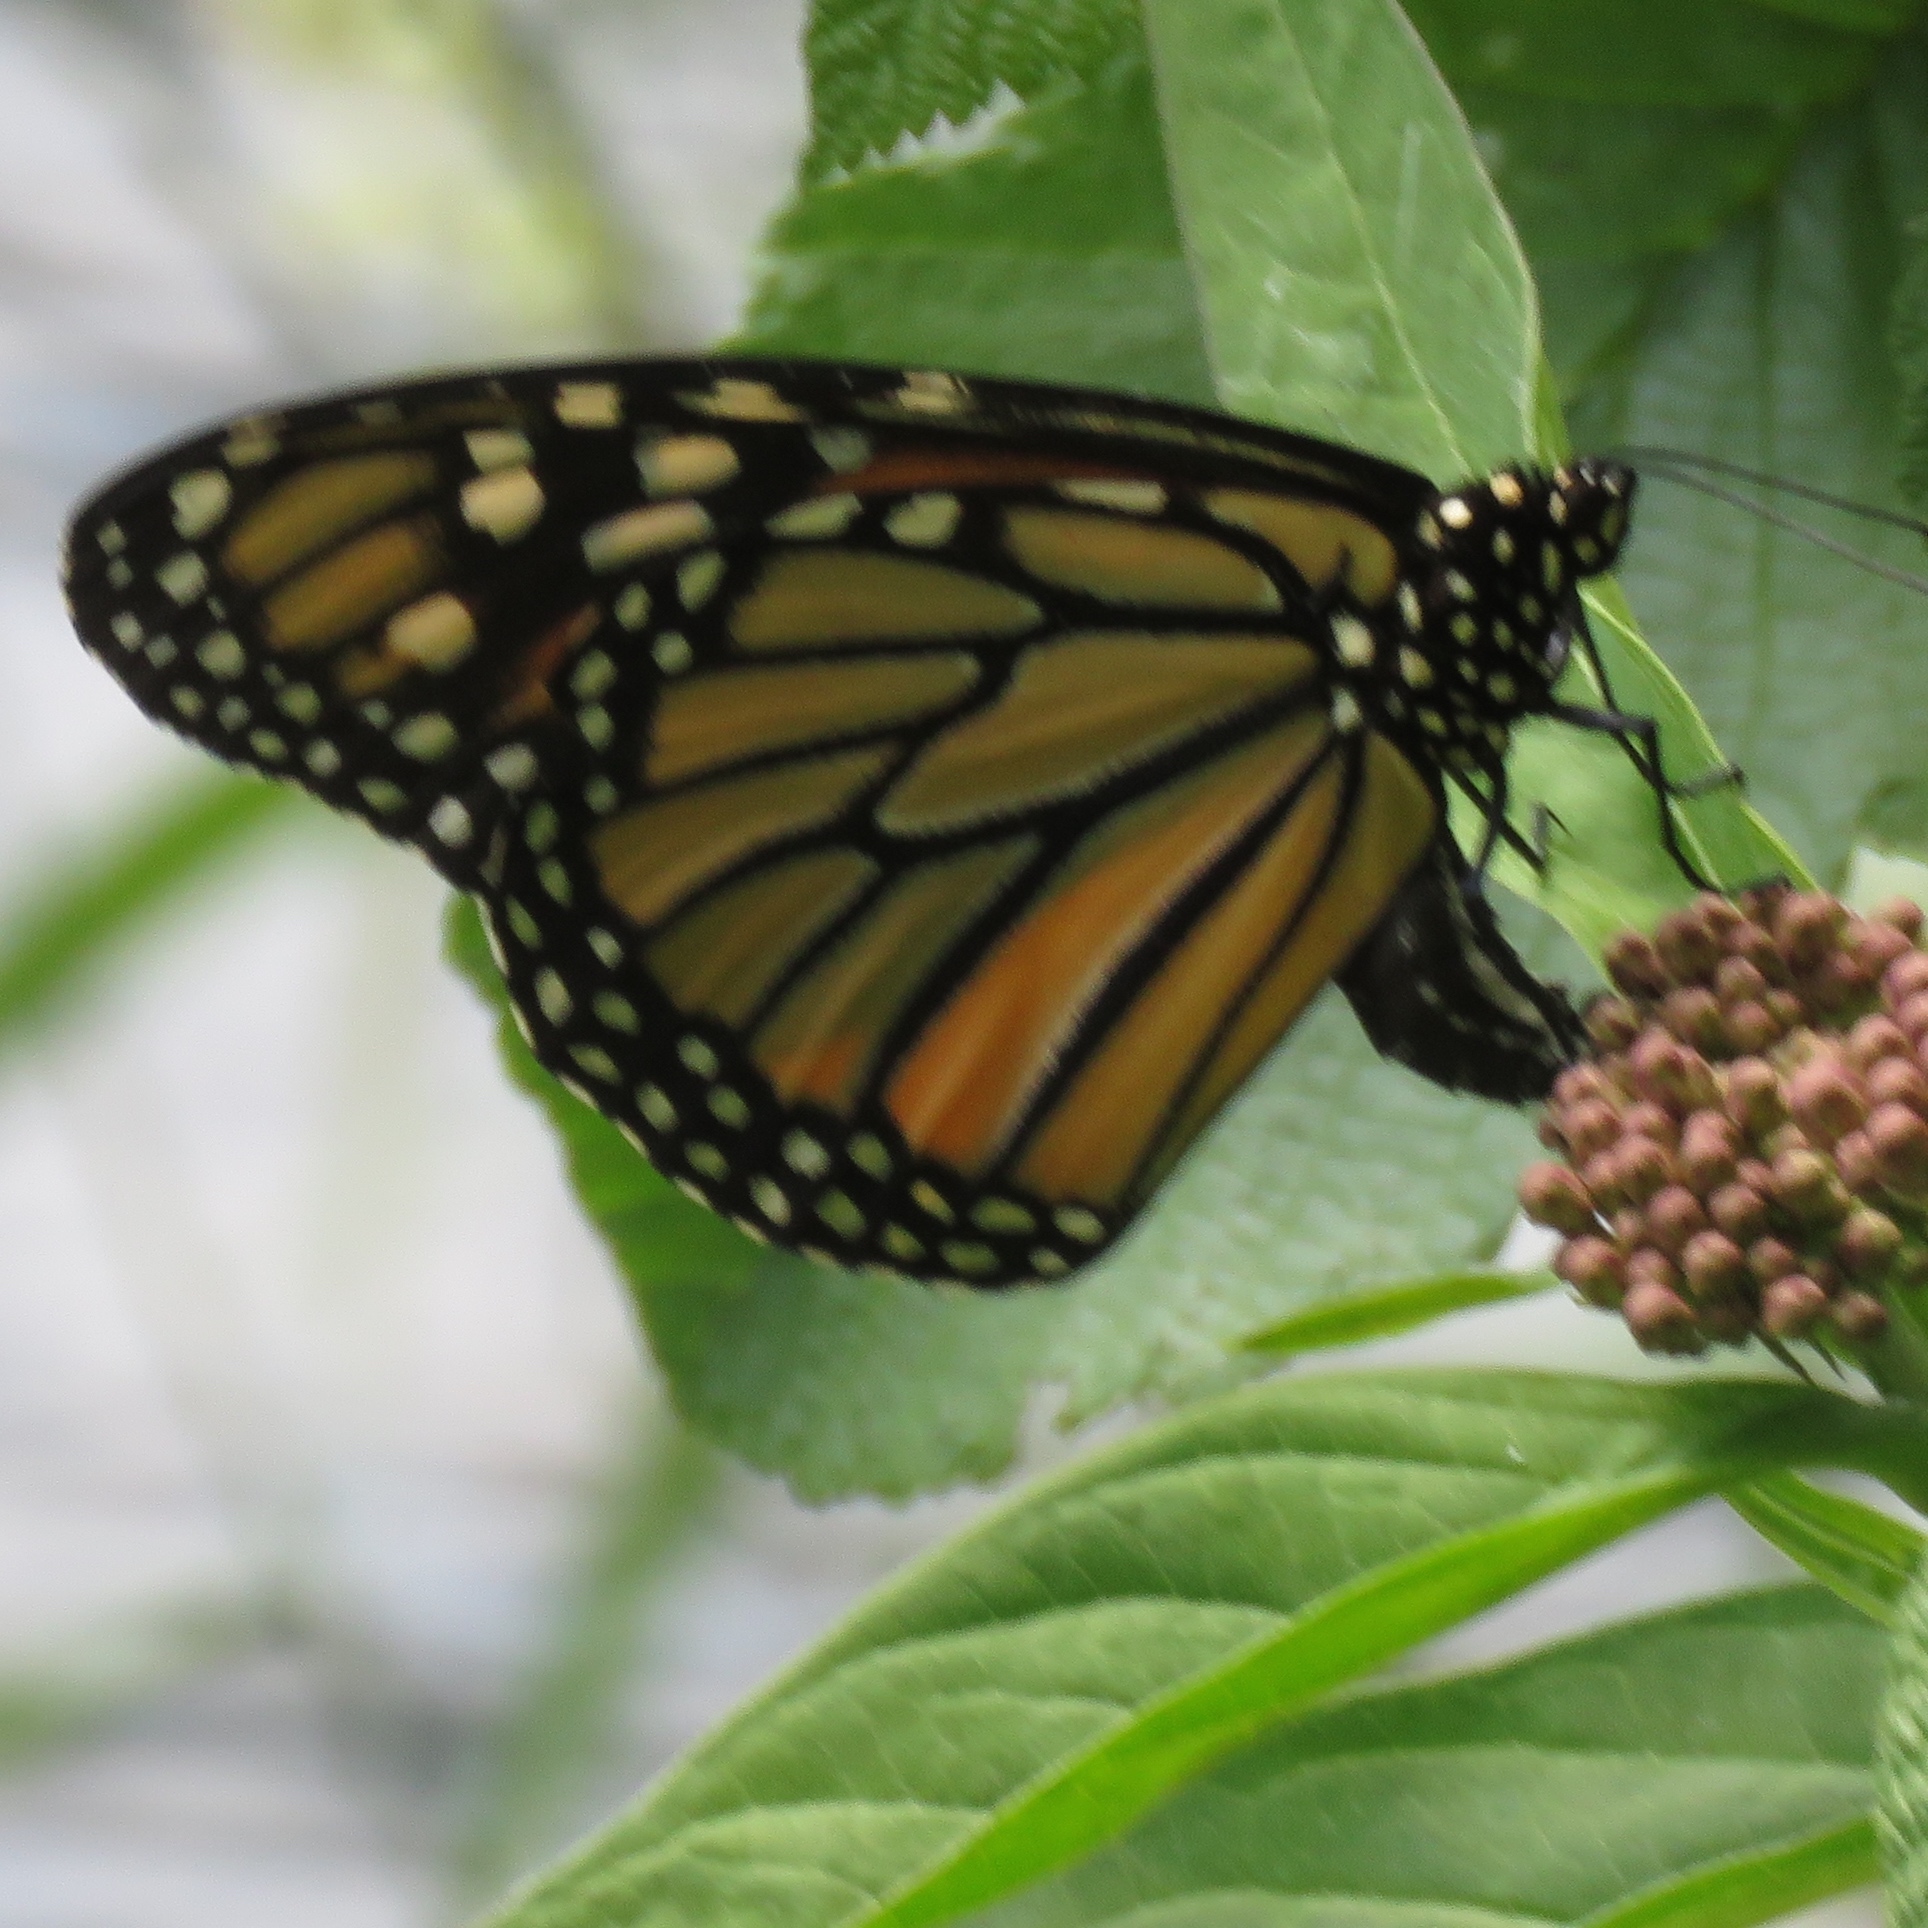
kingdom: Animalia
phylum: Arthropoda
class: Insecta
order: Lepidoptera
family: Nymphalidae
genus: Danaus
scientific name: Danaus plexippus
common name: Monarch
